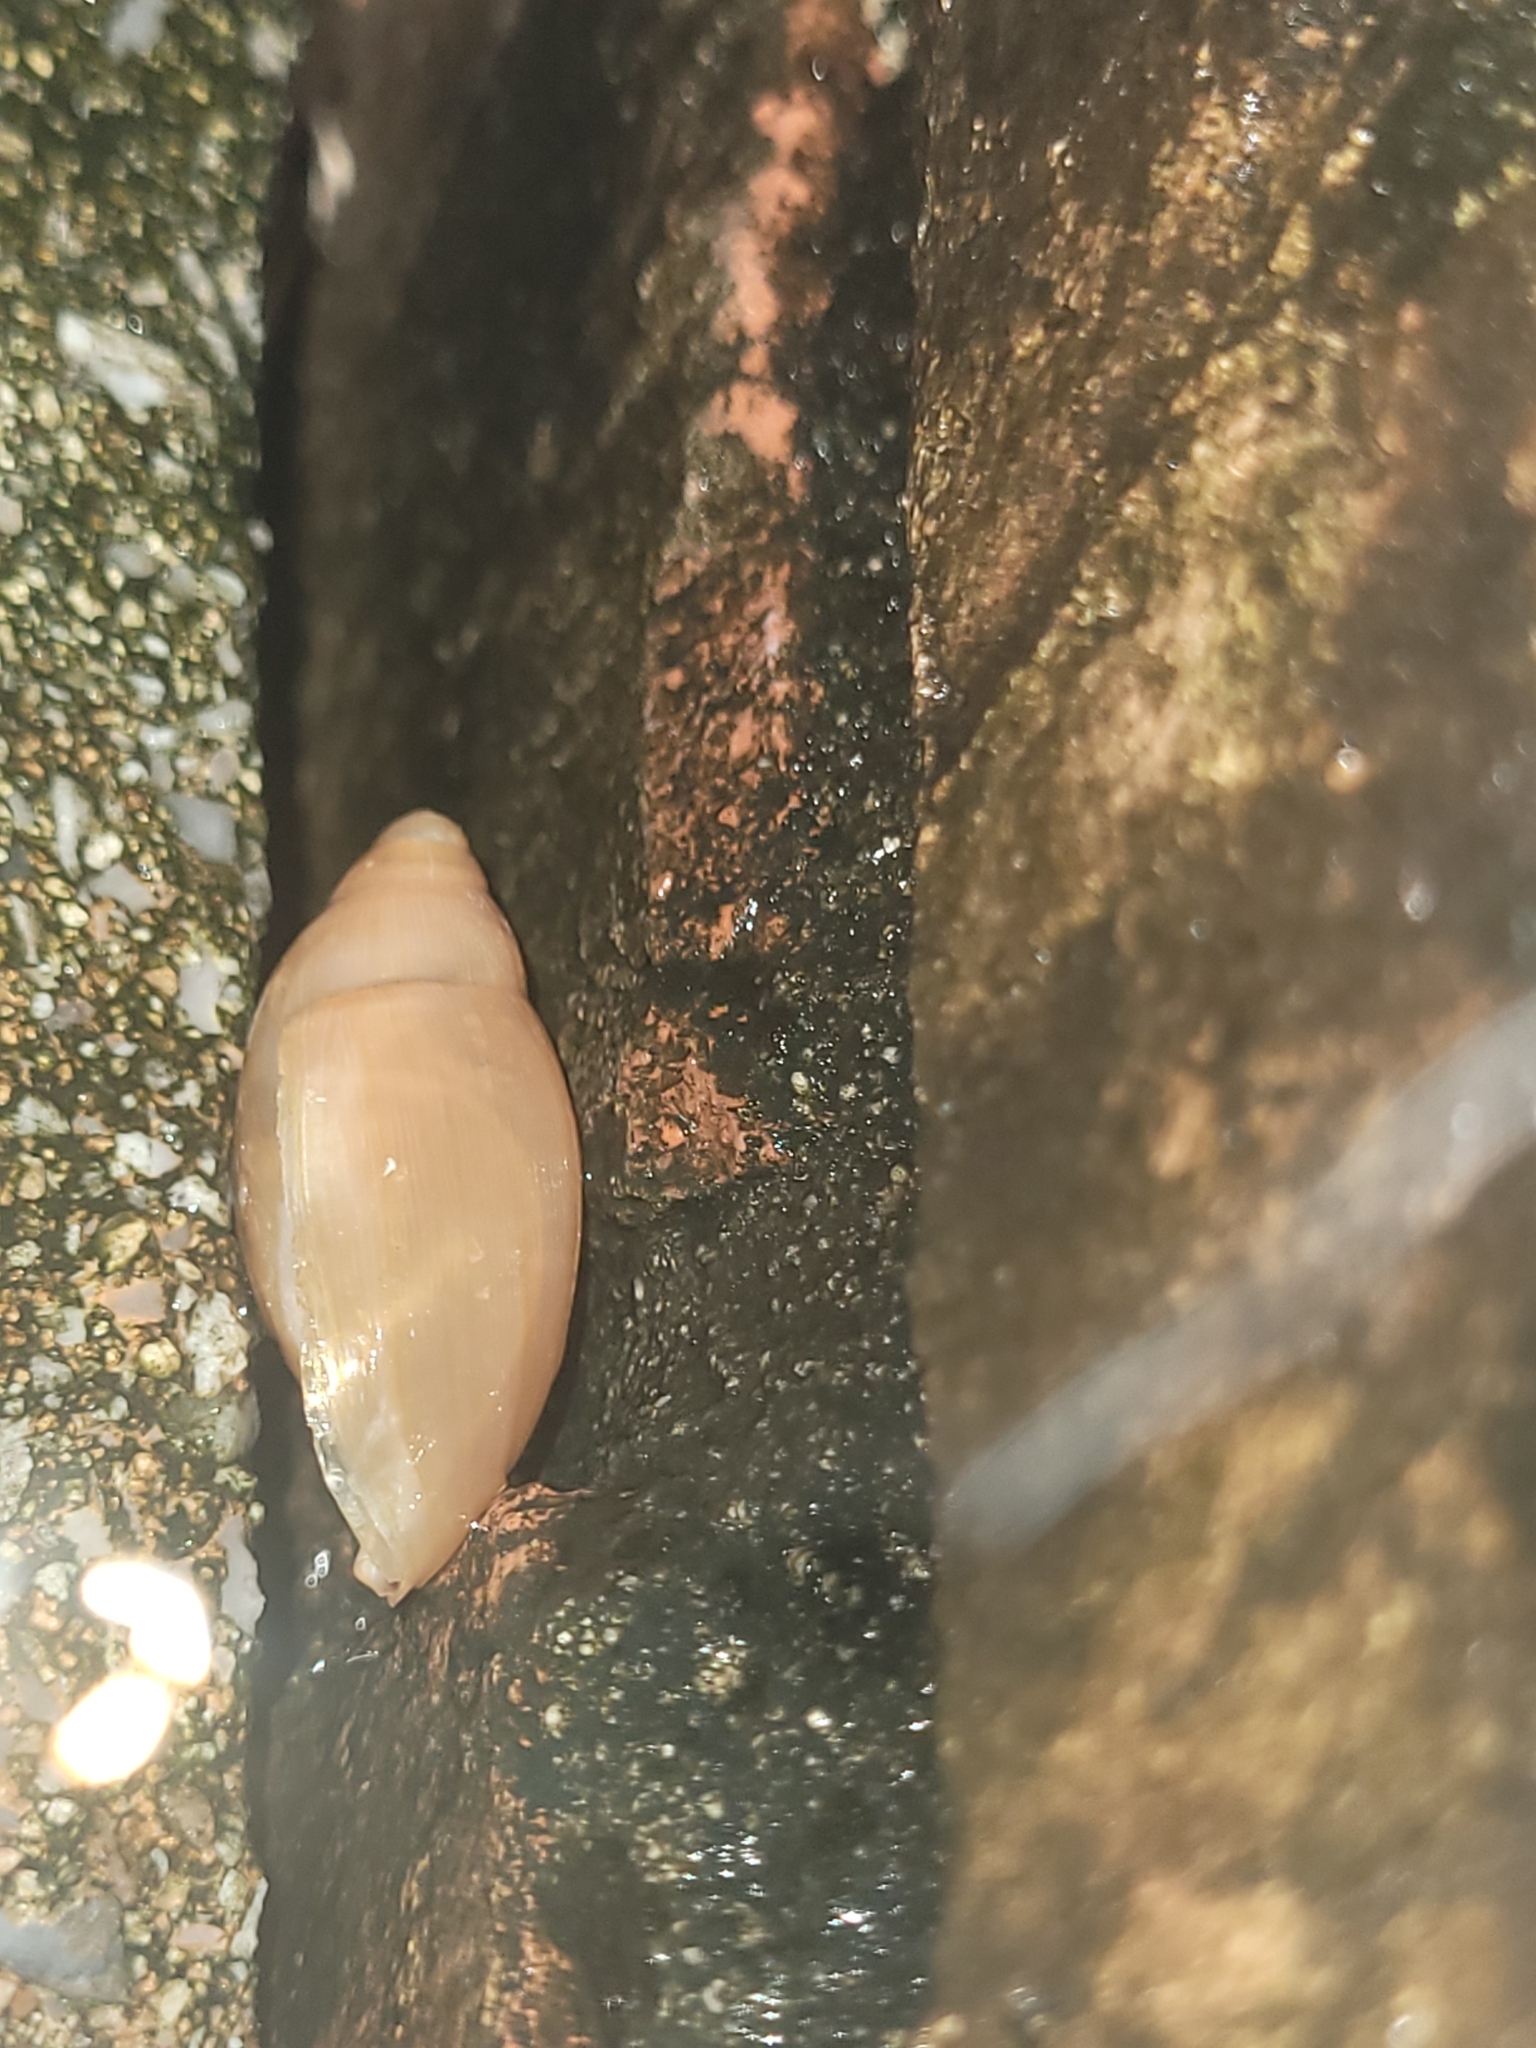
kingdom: Animalia
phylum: Mollusca
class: Gastropoda
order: Stylommatophora
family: Spiraxidae
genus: Euglandina
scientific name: Euglandina rosea
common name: Rosy wolfsnail
